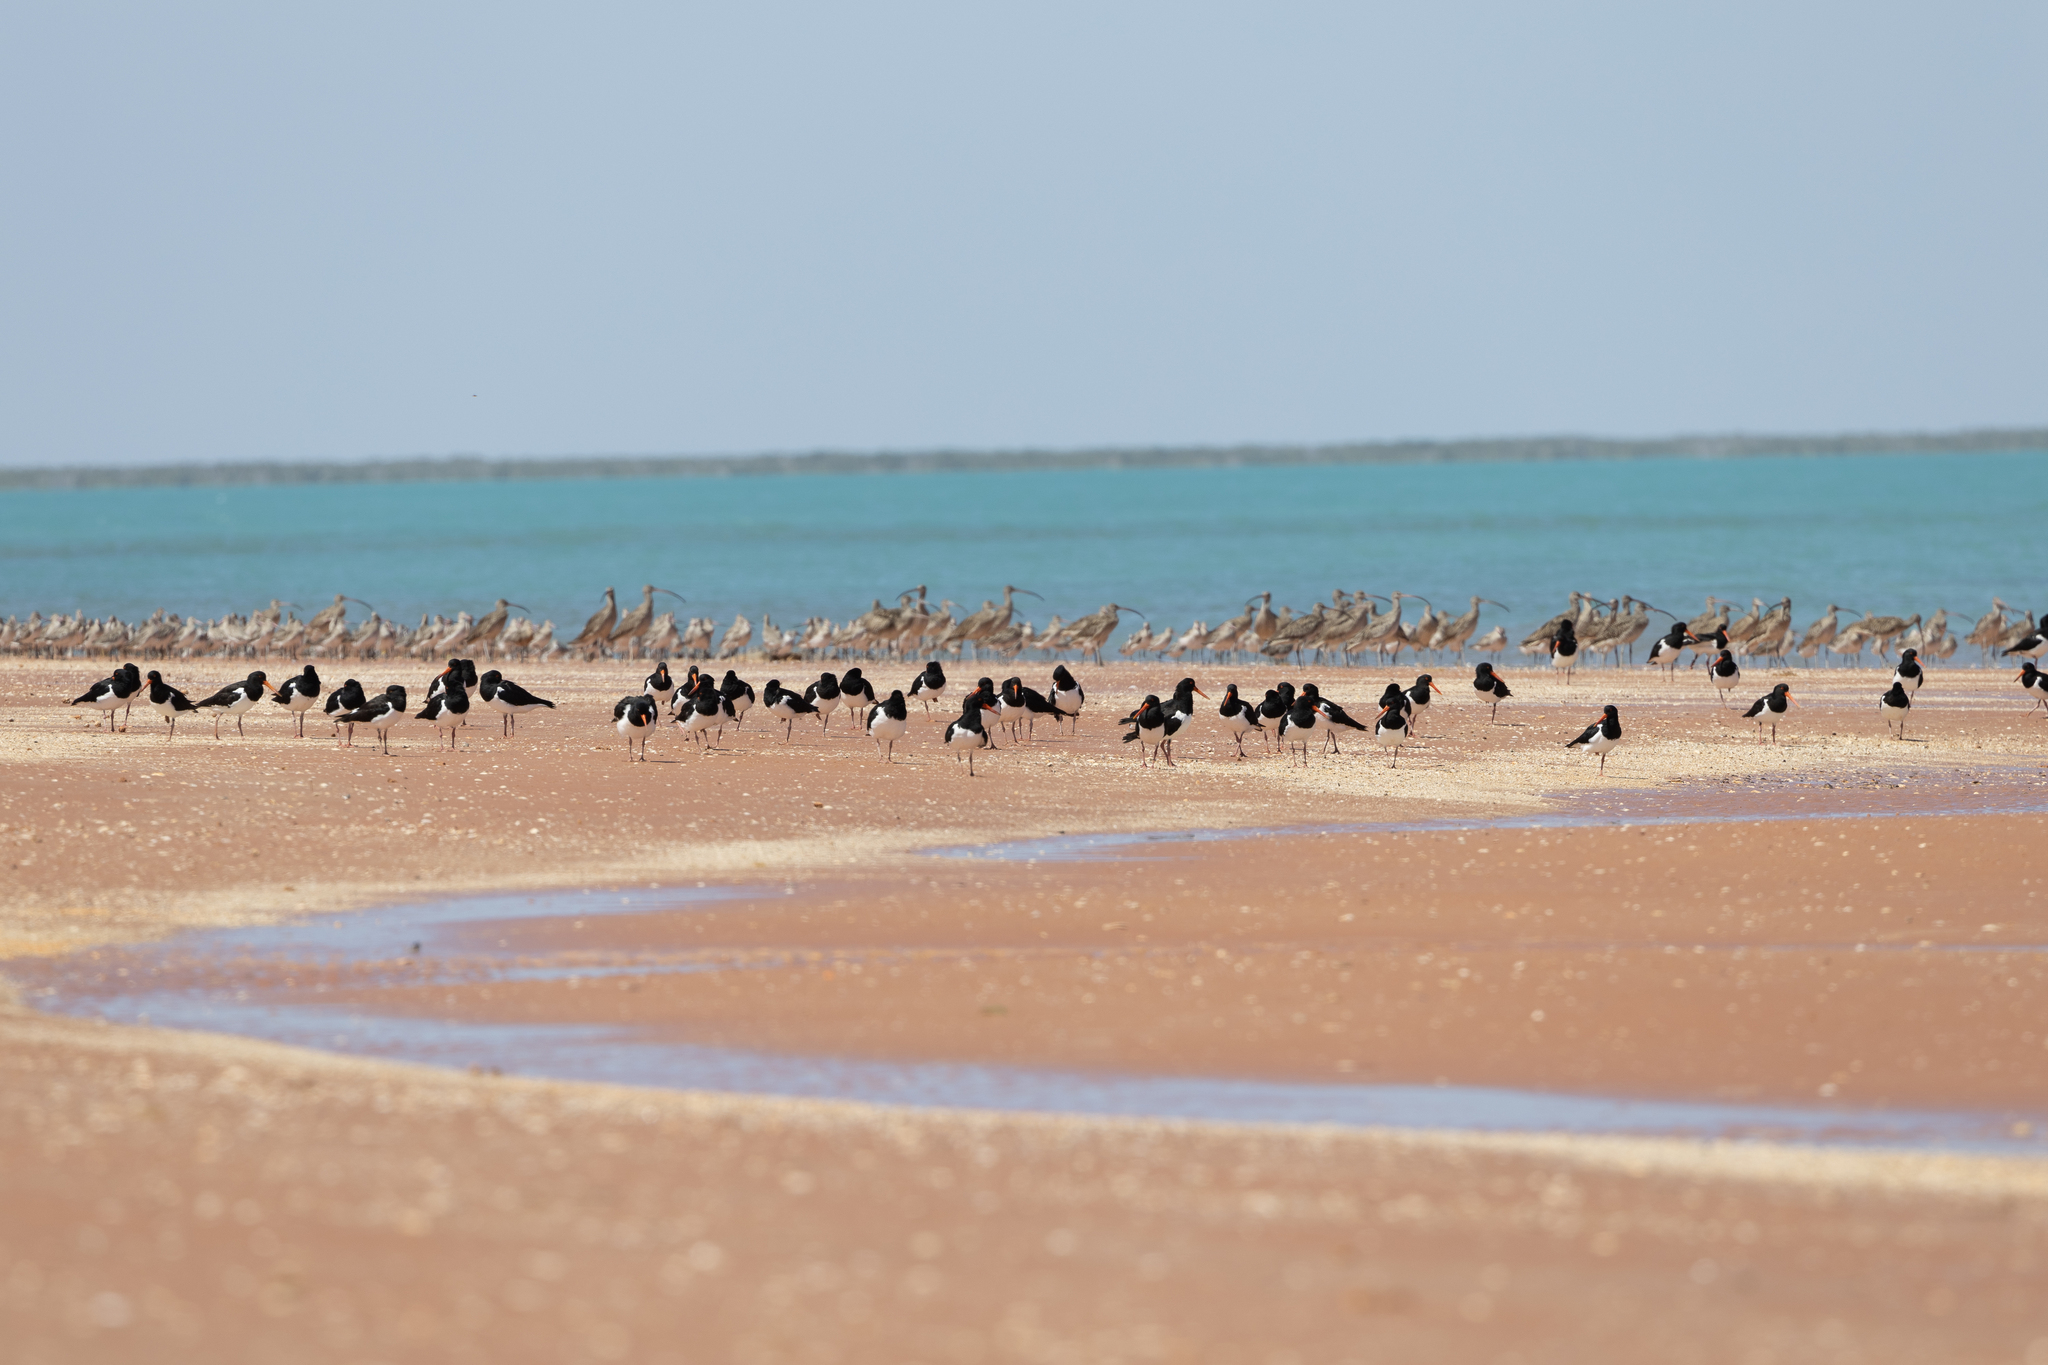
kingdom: Animalia
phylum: Chordata
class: Aves
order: Charadriiformes
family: Haematopodidae
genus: Haematopus
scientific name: Haematopus longirostris
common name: Pied oystercatcher
